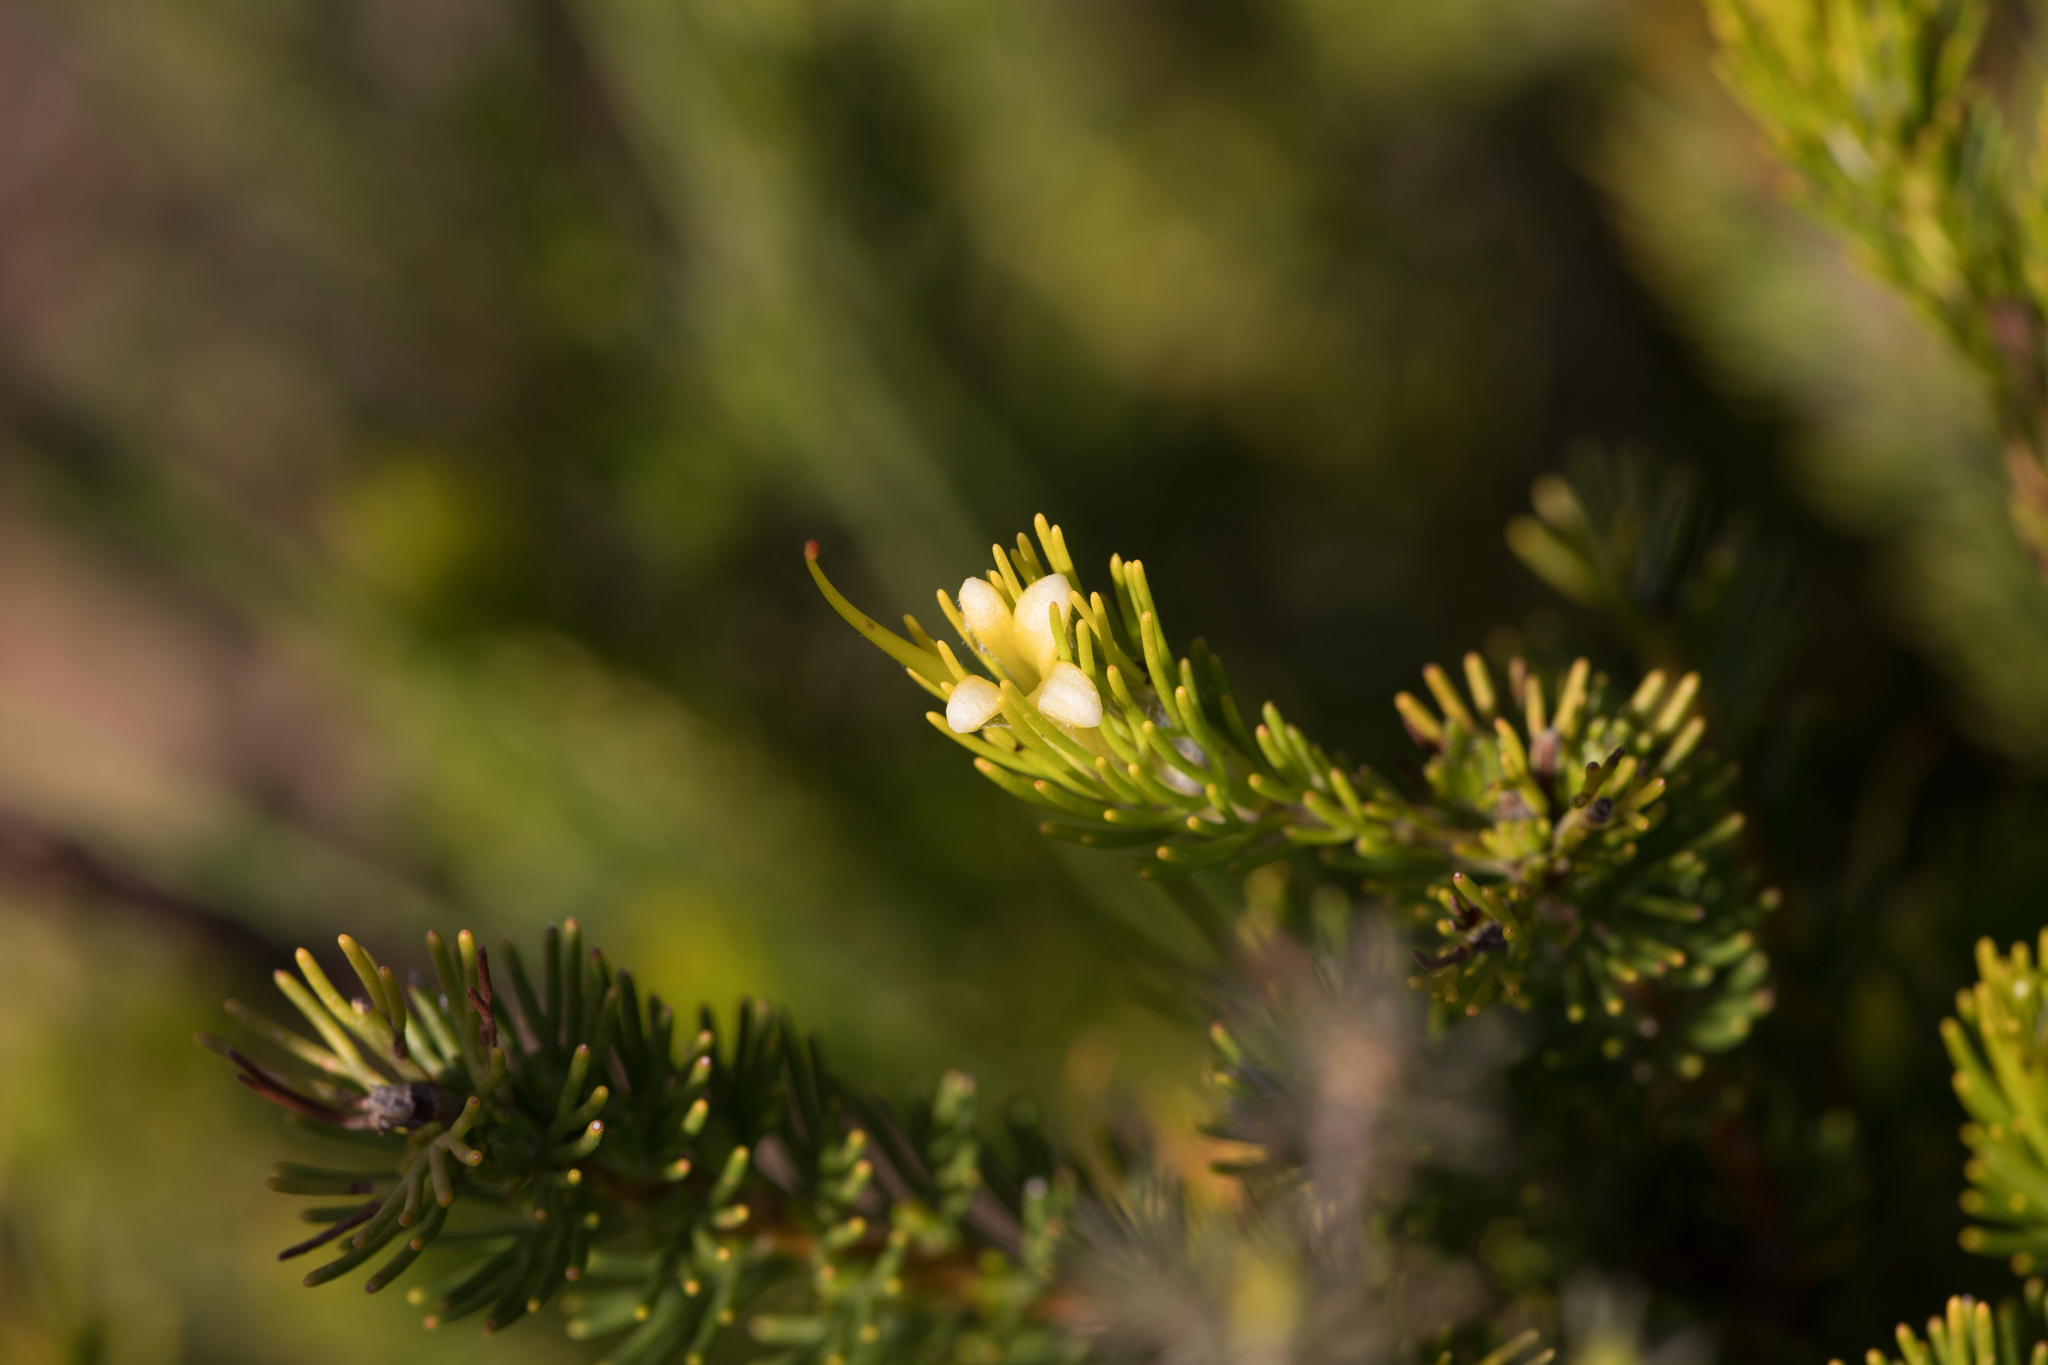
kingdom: Plantae
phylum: Tracheophyta
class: Magnoliopsida
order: Proteales
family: Proteaceae
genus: Adenanthos
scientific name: Adenanthos terminalis
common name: Yellow gland-flower
